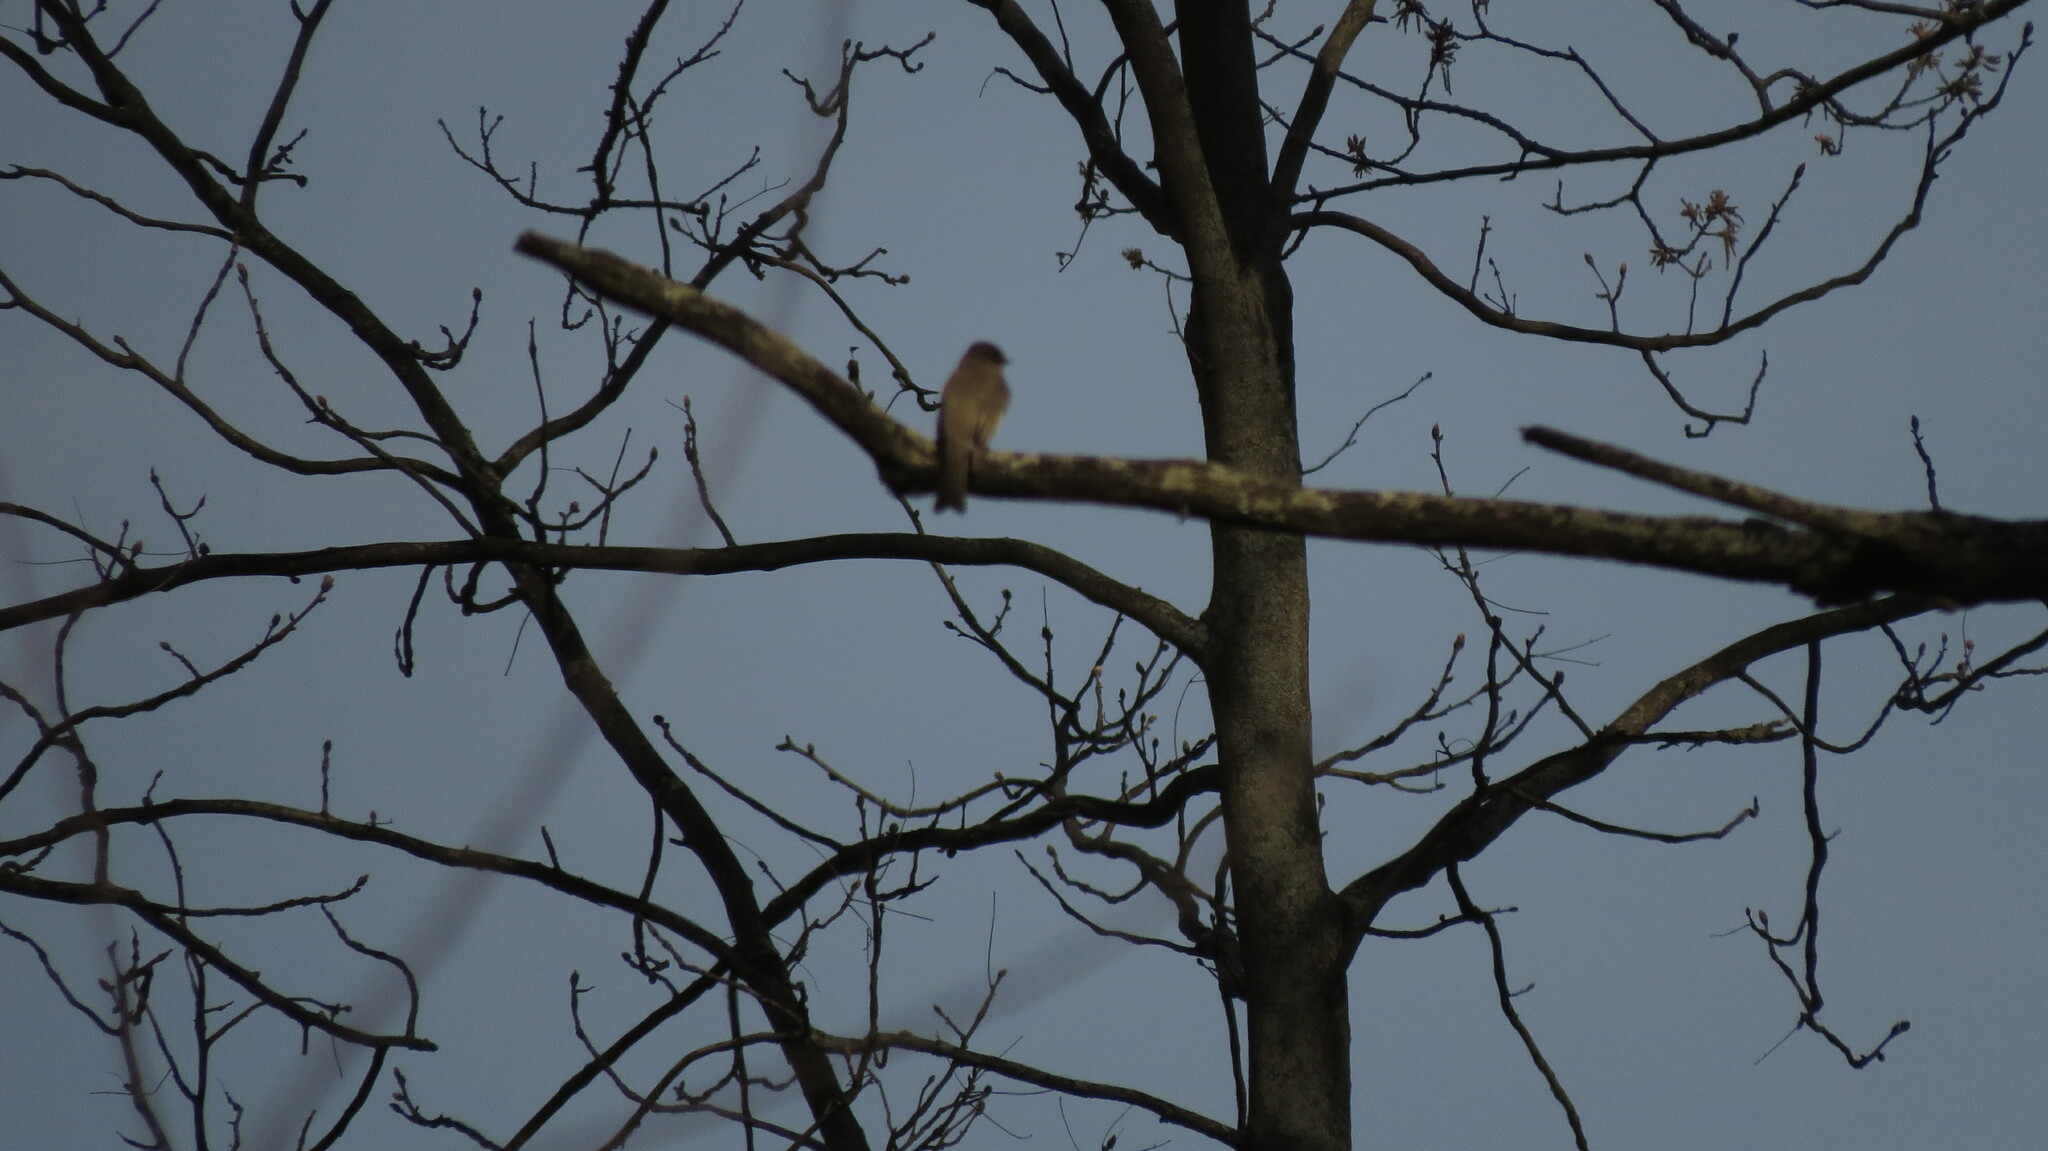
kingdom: Animalia
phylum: Chordata
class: Aves
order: Passeriformes
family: Tyrannidae
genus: Sayornis
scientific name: Sayornis phoebe
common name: Eastern phoebe
